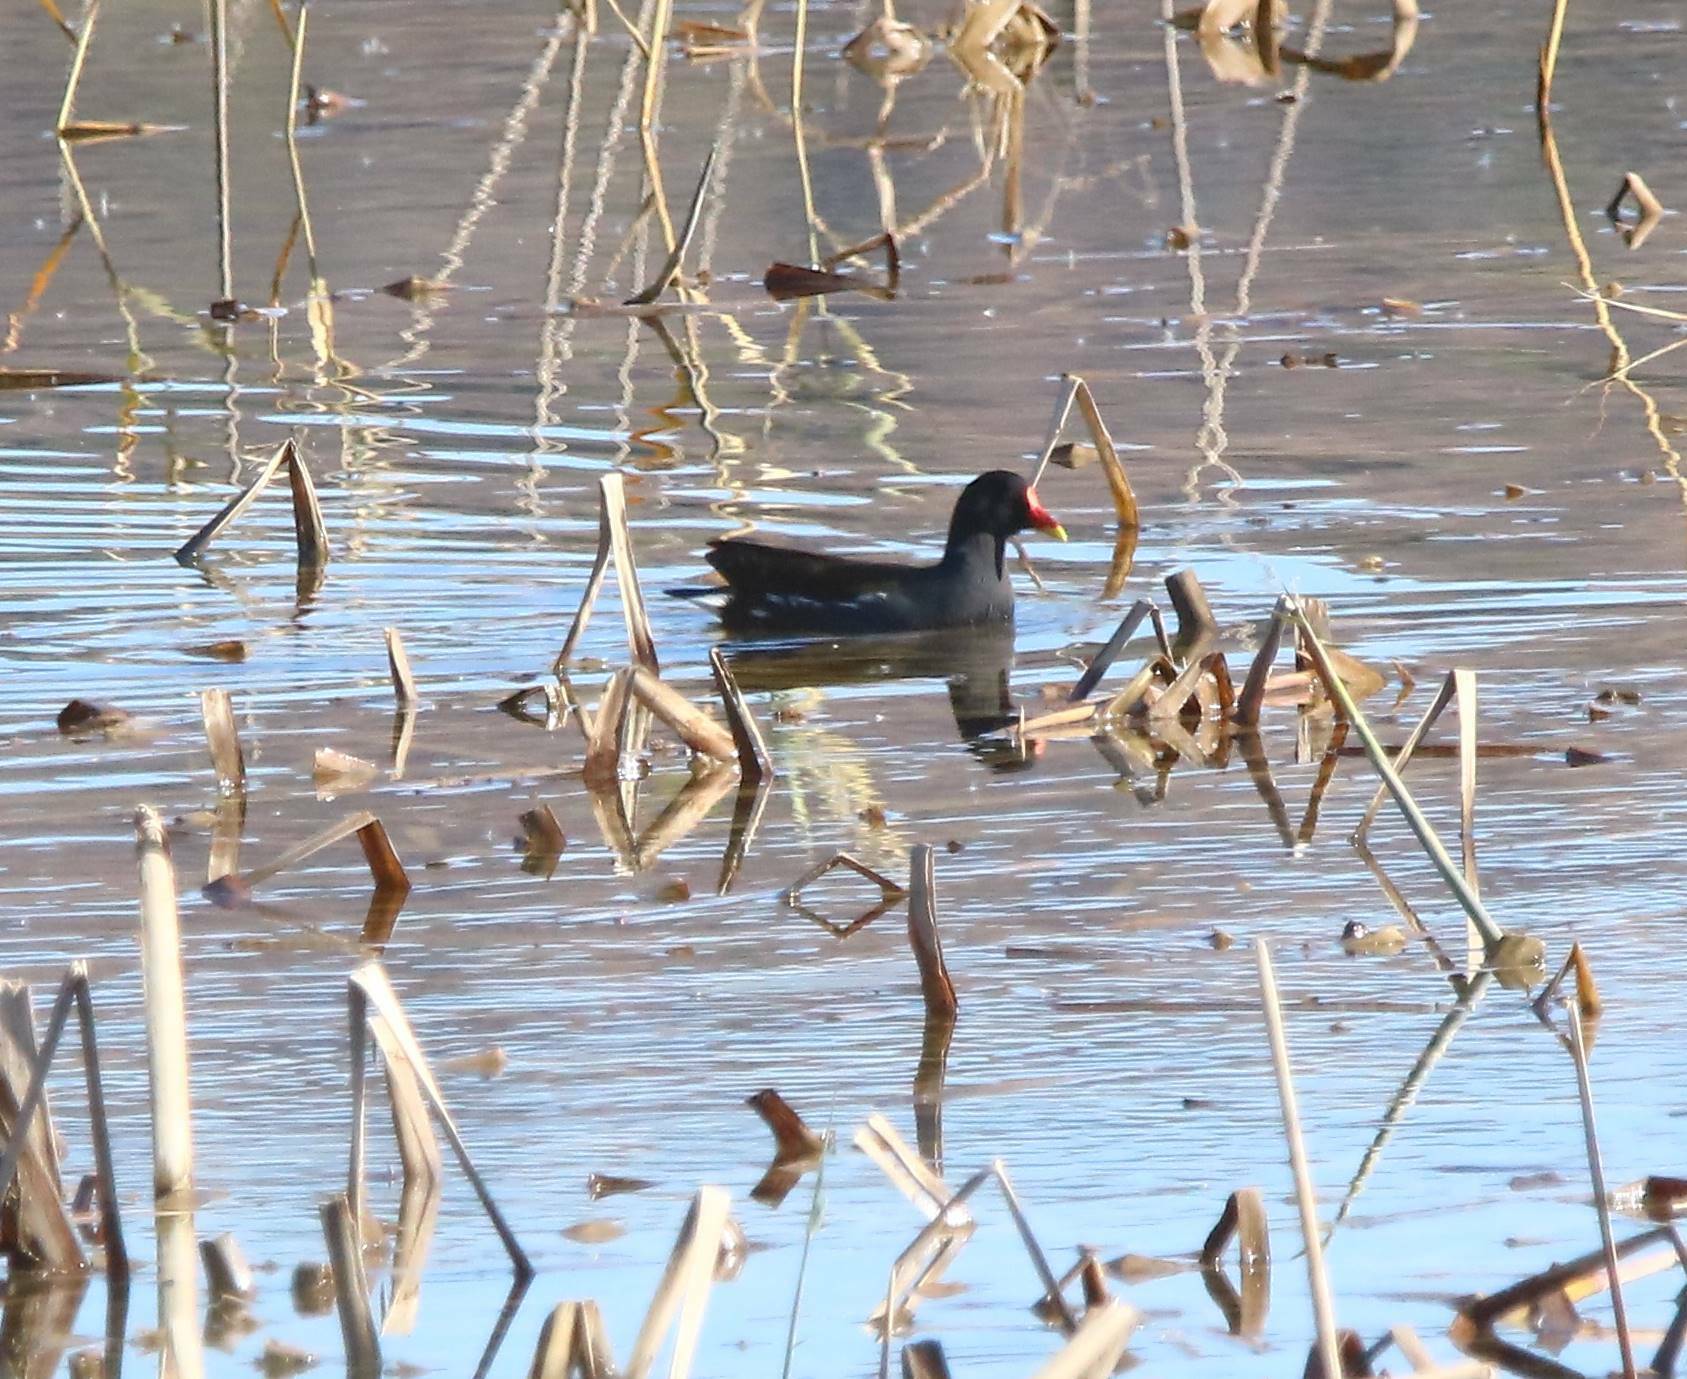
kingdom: Animalia
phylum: Chordata
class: Aves
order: Gruiformes
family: Rallidae
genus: Gallinula
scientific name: Gallinula chloropus
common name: Common moorhen
